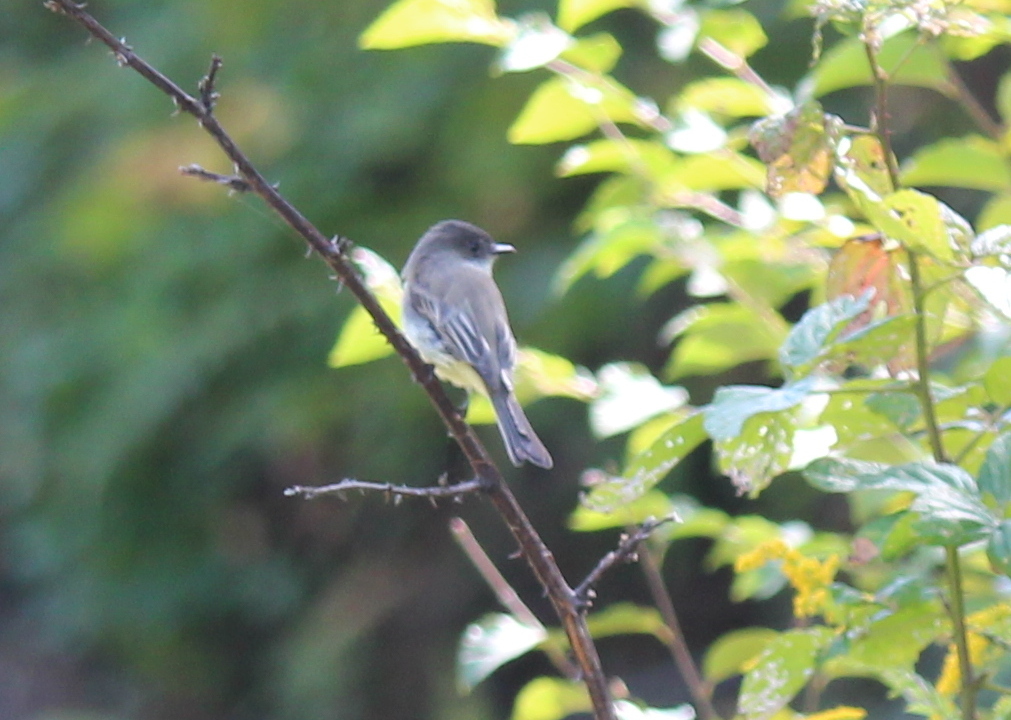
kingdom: Animalia
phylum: Chordata
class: Aves
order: Passeriformes
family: Tyrannidae
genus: Sayornis
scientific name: Sayornis phoebe
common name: Eastern phoebe
